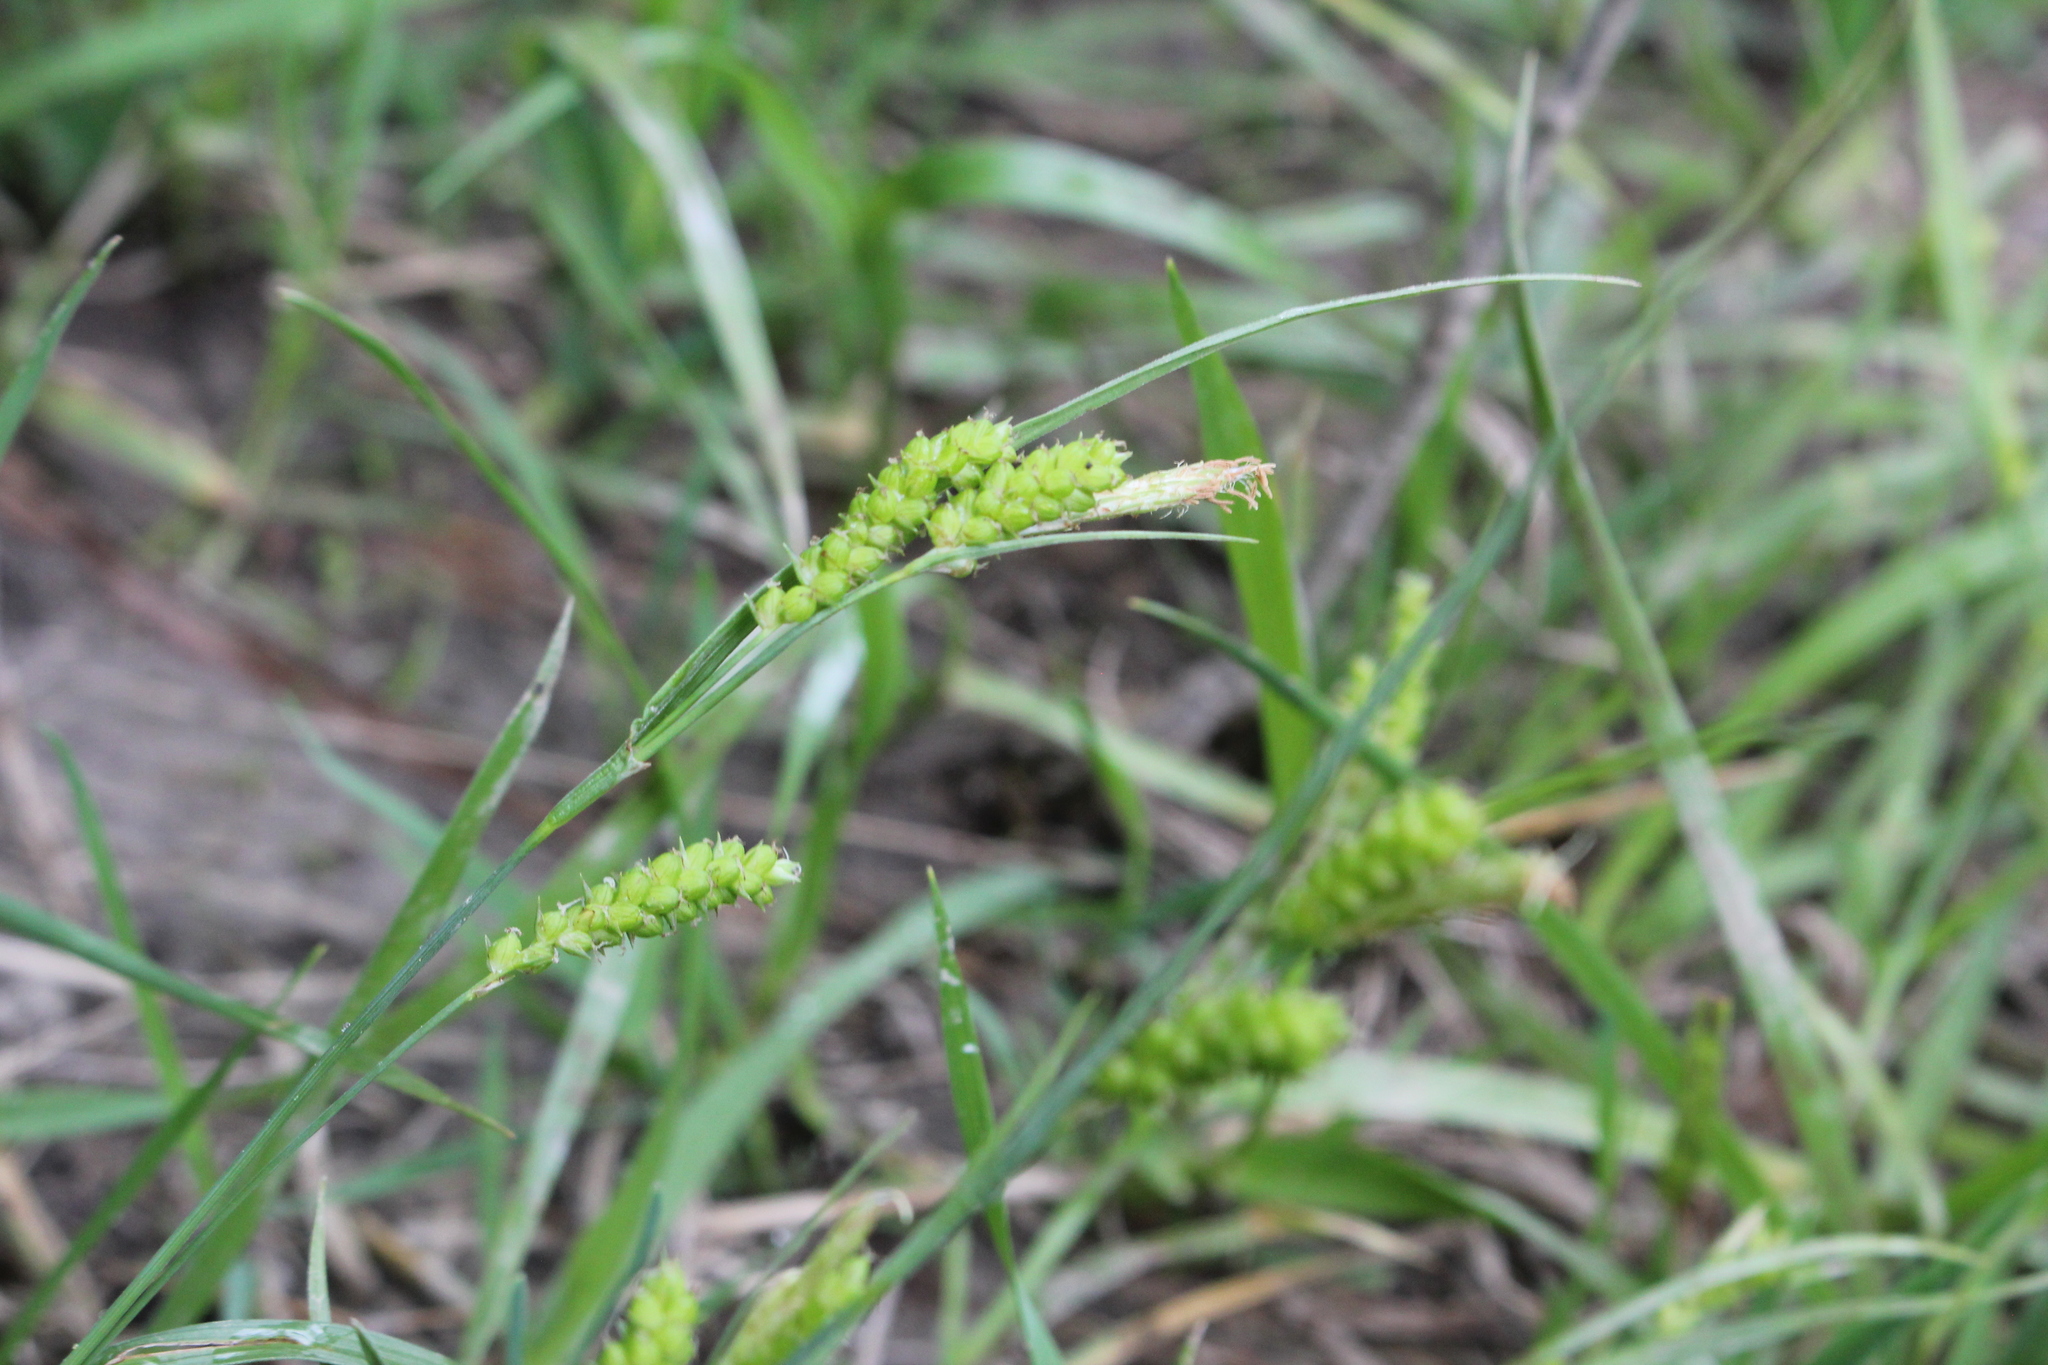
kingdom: Plantae
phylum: Tracheophyta
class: Liliopsida
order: Poales
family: Cyperaceae
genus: Carex
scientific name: Carex granularis
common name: Granular sedge
